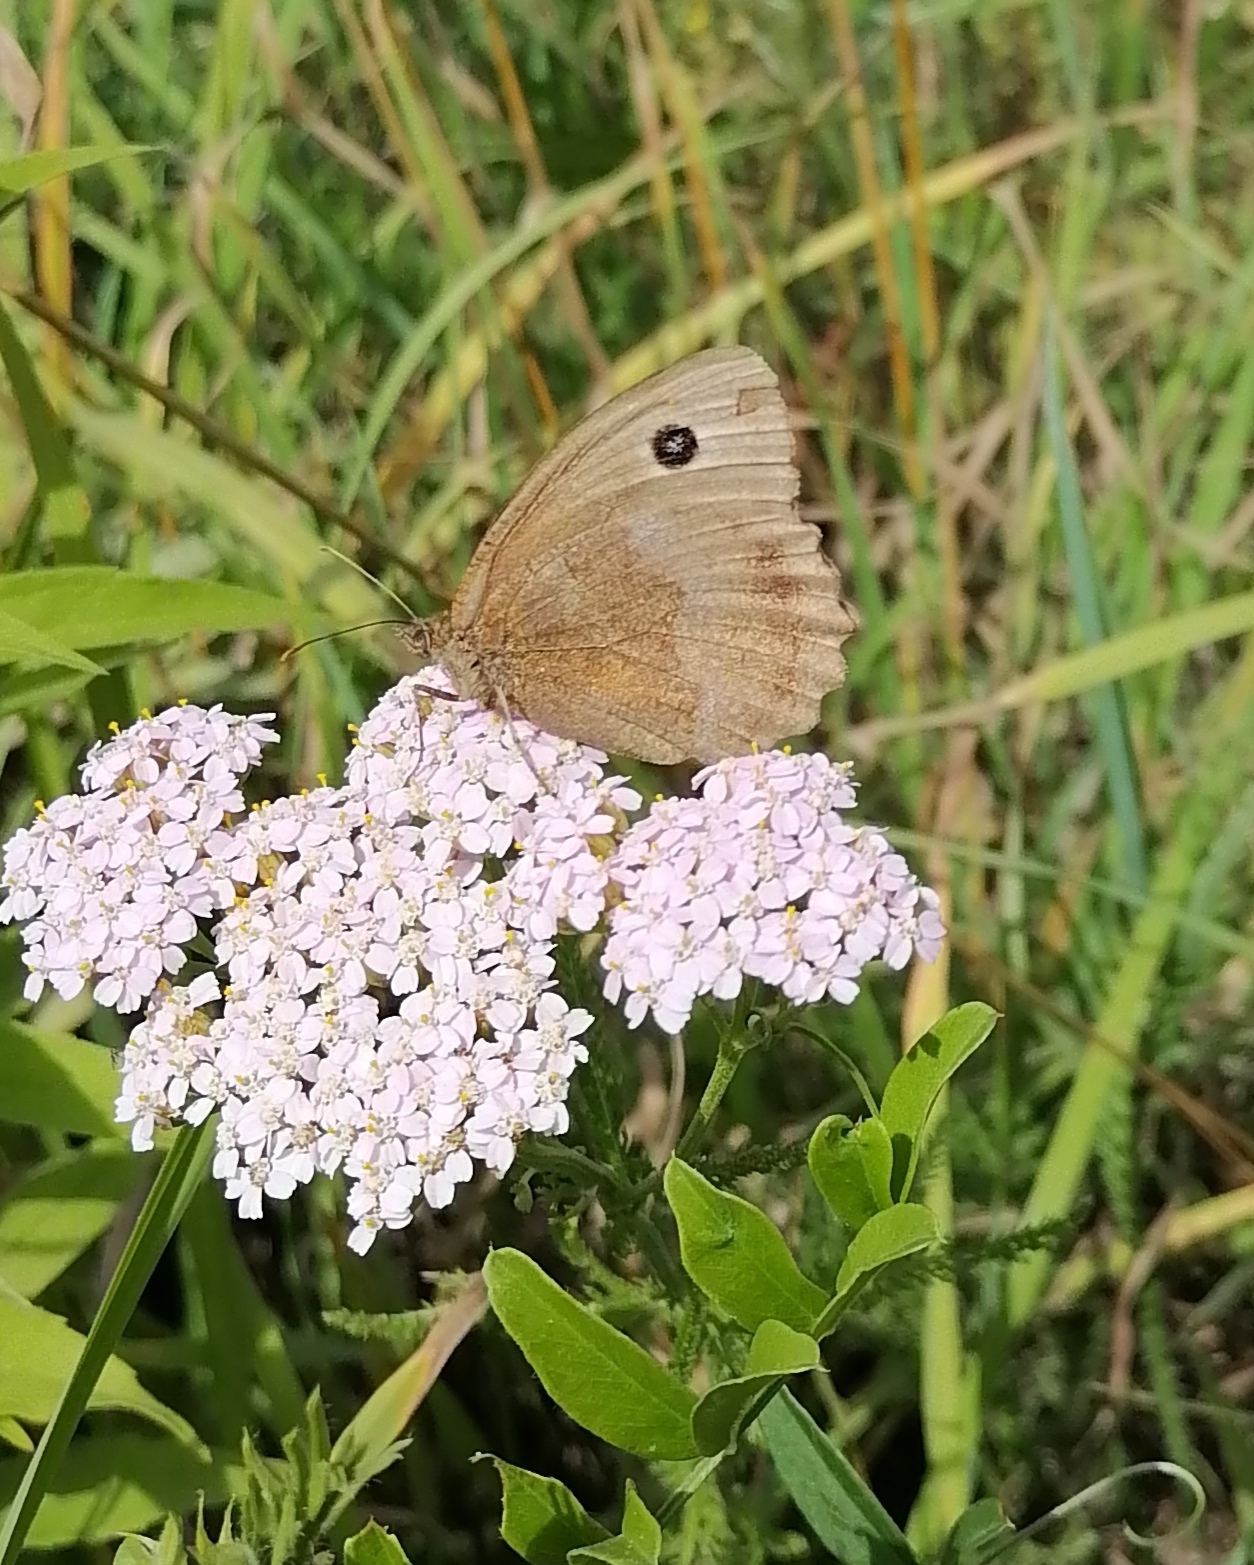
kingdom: Animalia
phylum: Arthropoda
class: Insecta
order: Lepidoptera
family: Nymphalidae
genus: Minois
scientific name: Minois dryas
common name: Dryad
